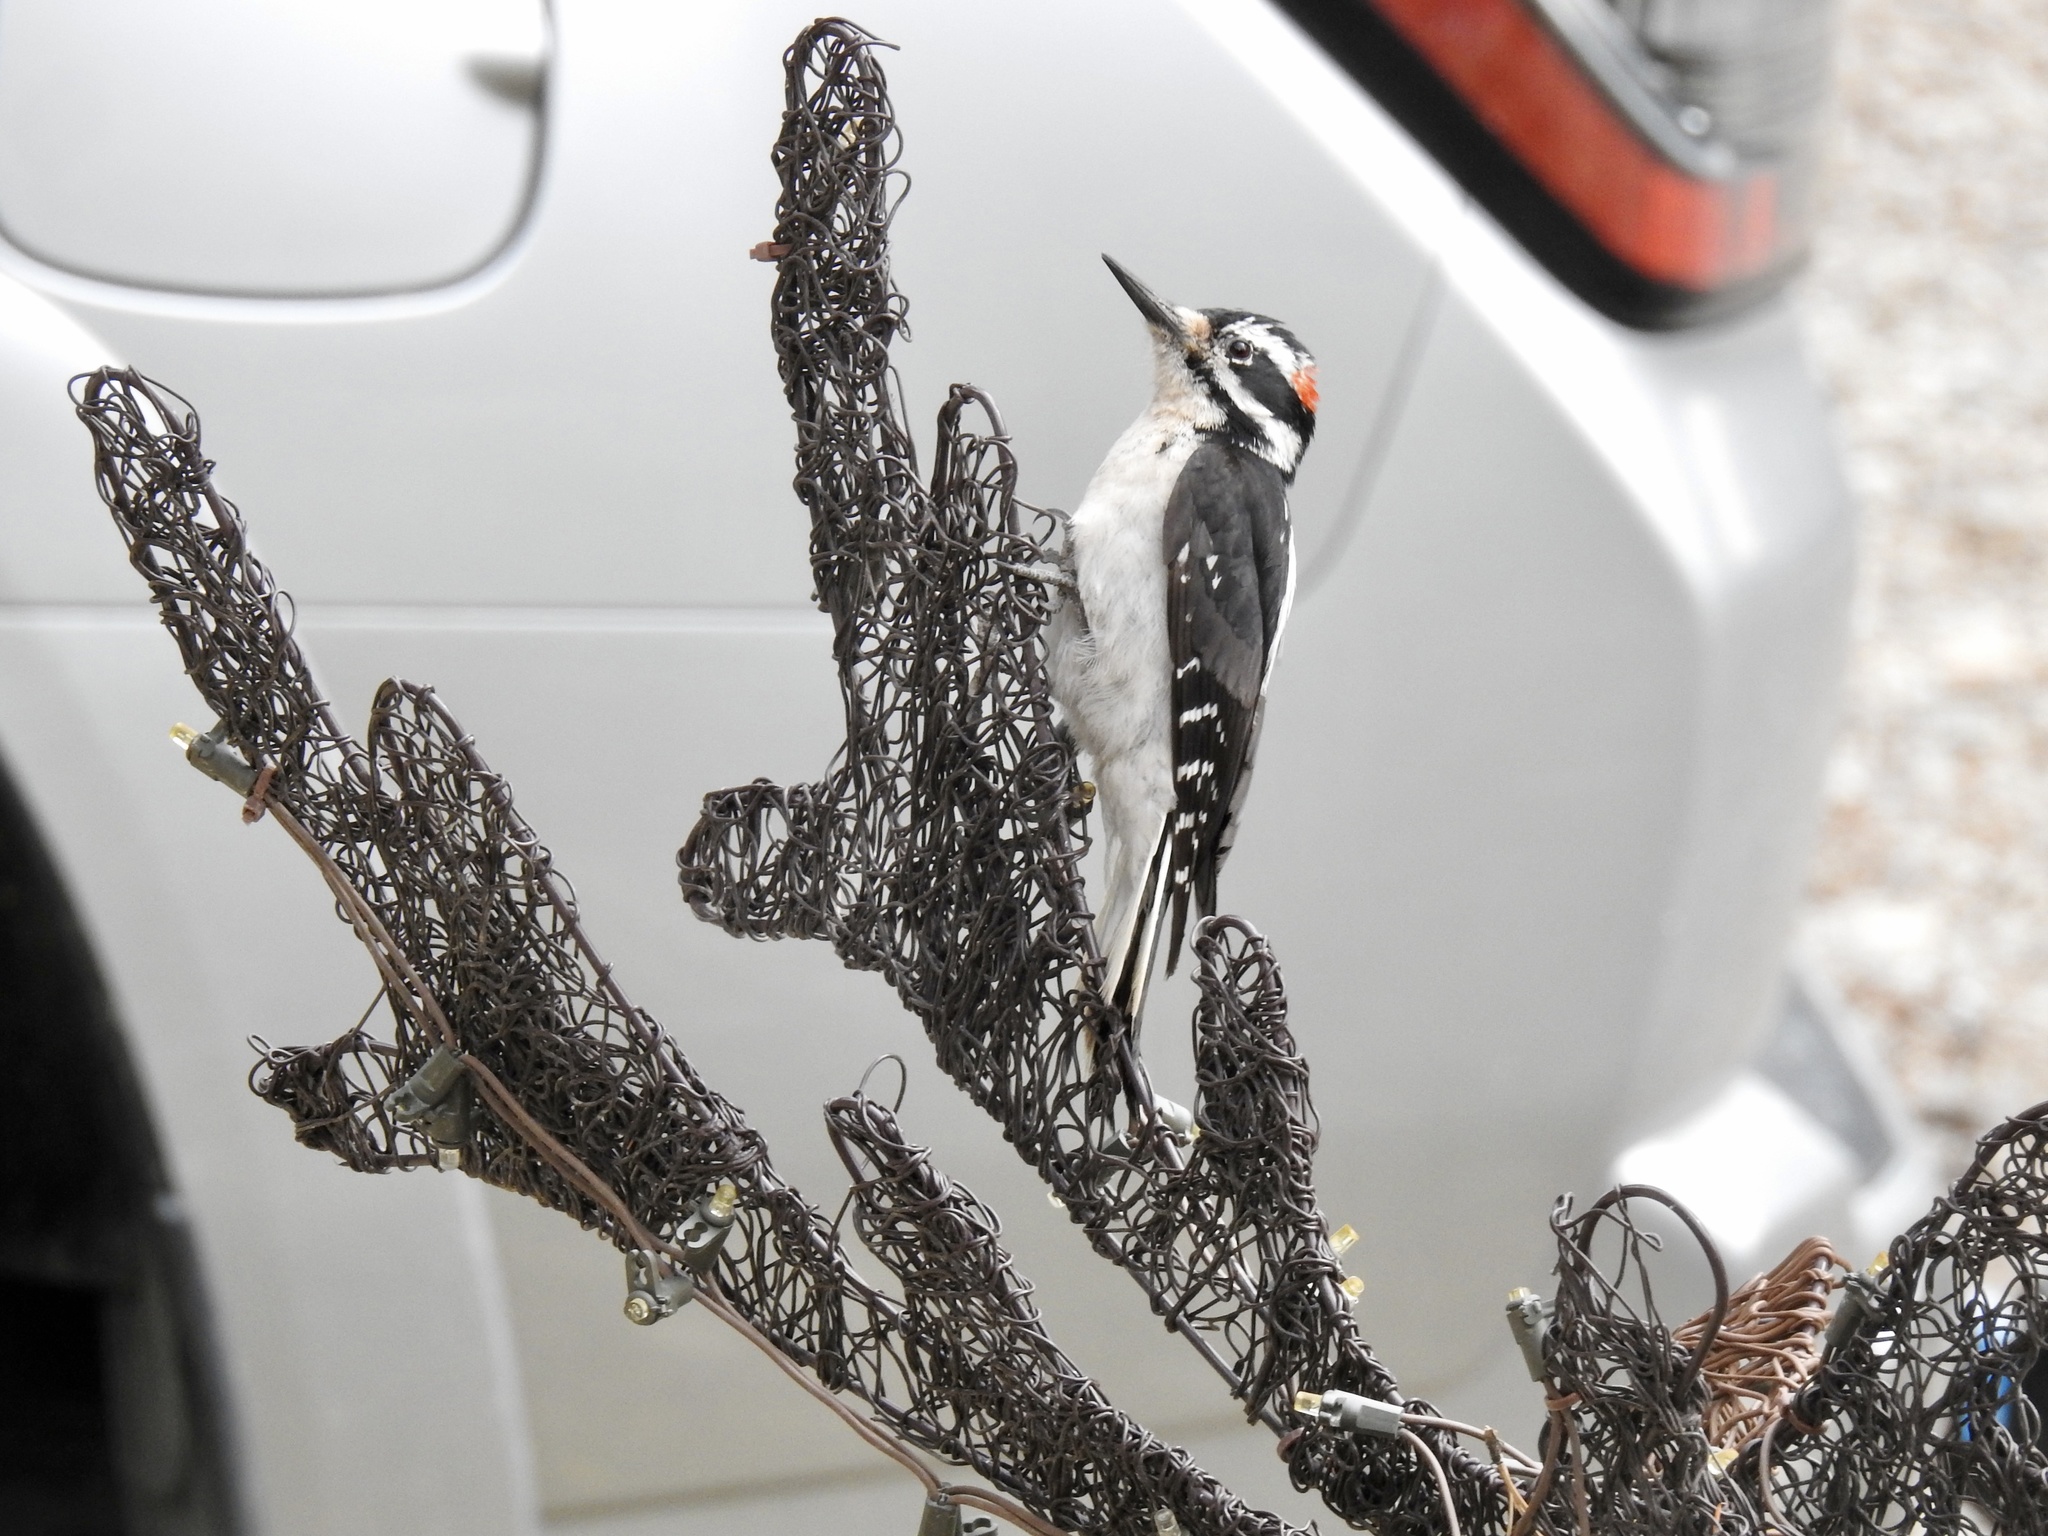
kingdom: Animalia
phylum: Chordata
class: Aves
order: Piciformes
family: Picidae
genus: Leuconotopicus
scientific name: Leuconotopicus villosus
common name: Hairy woodpecker
